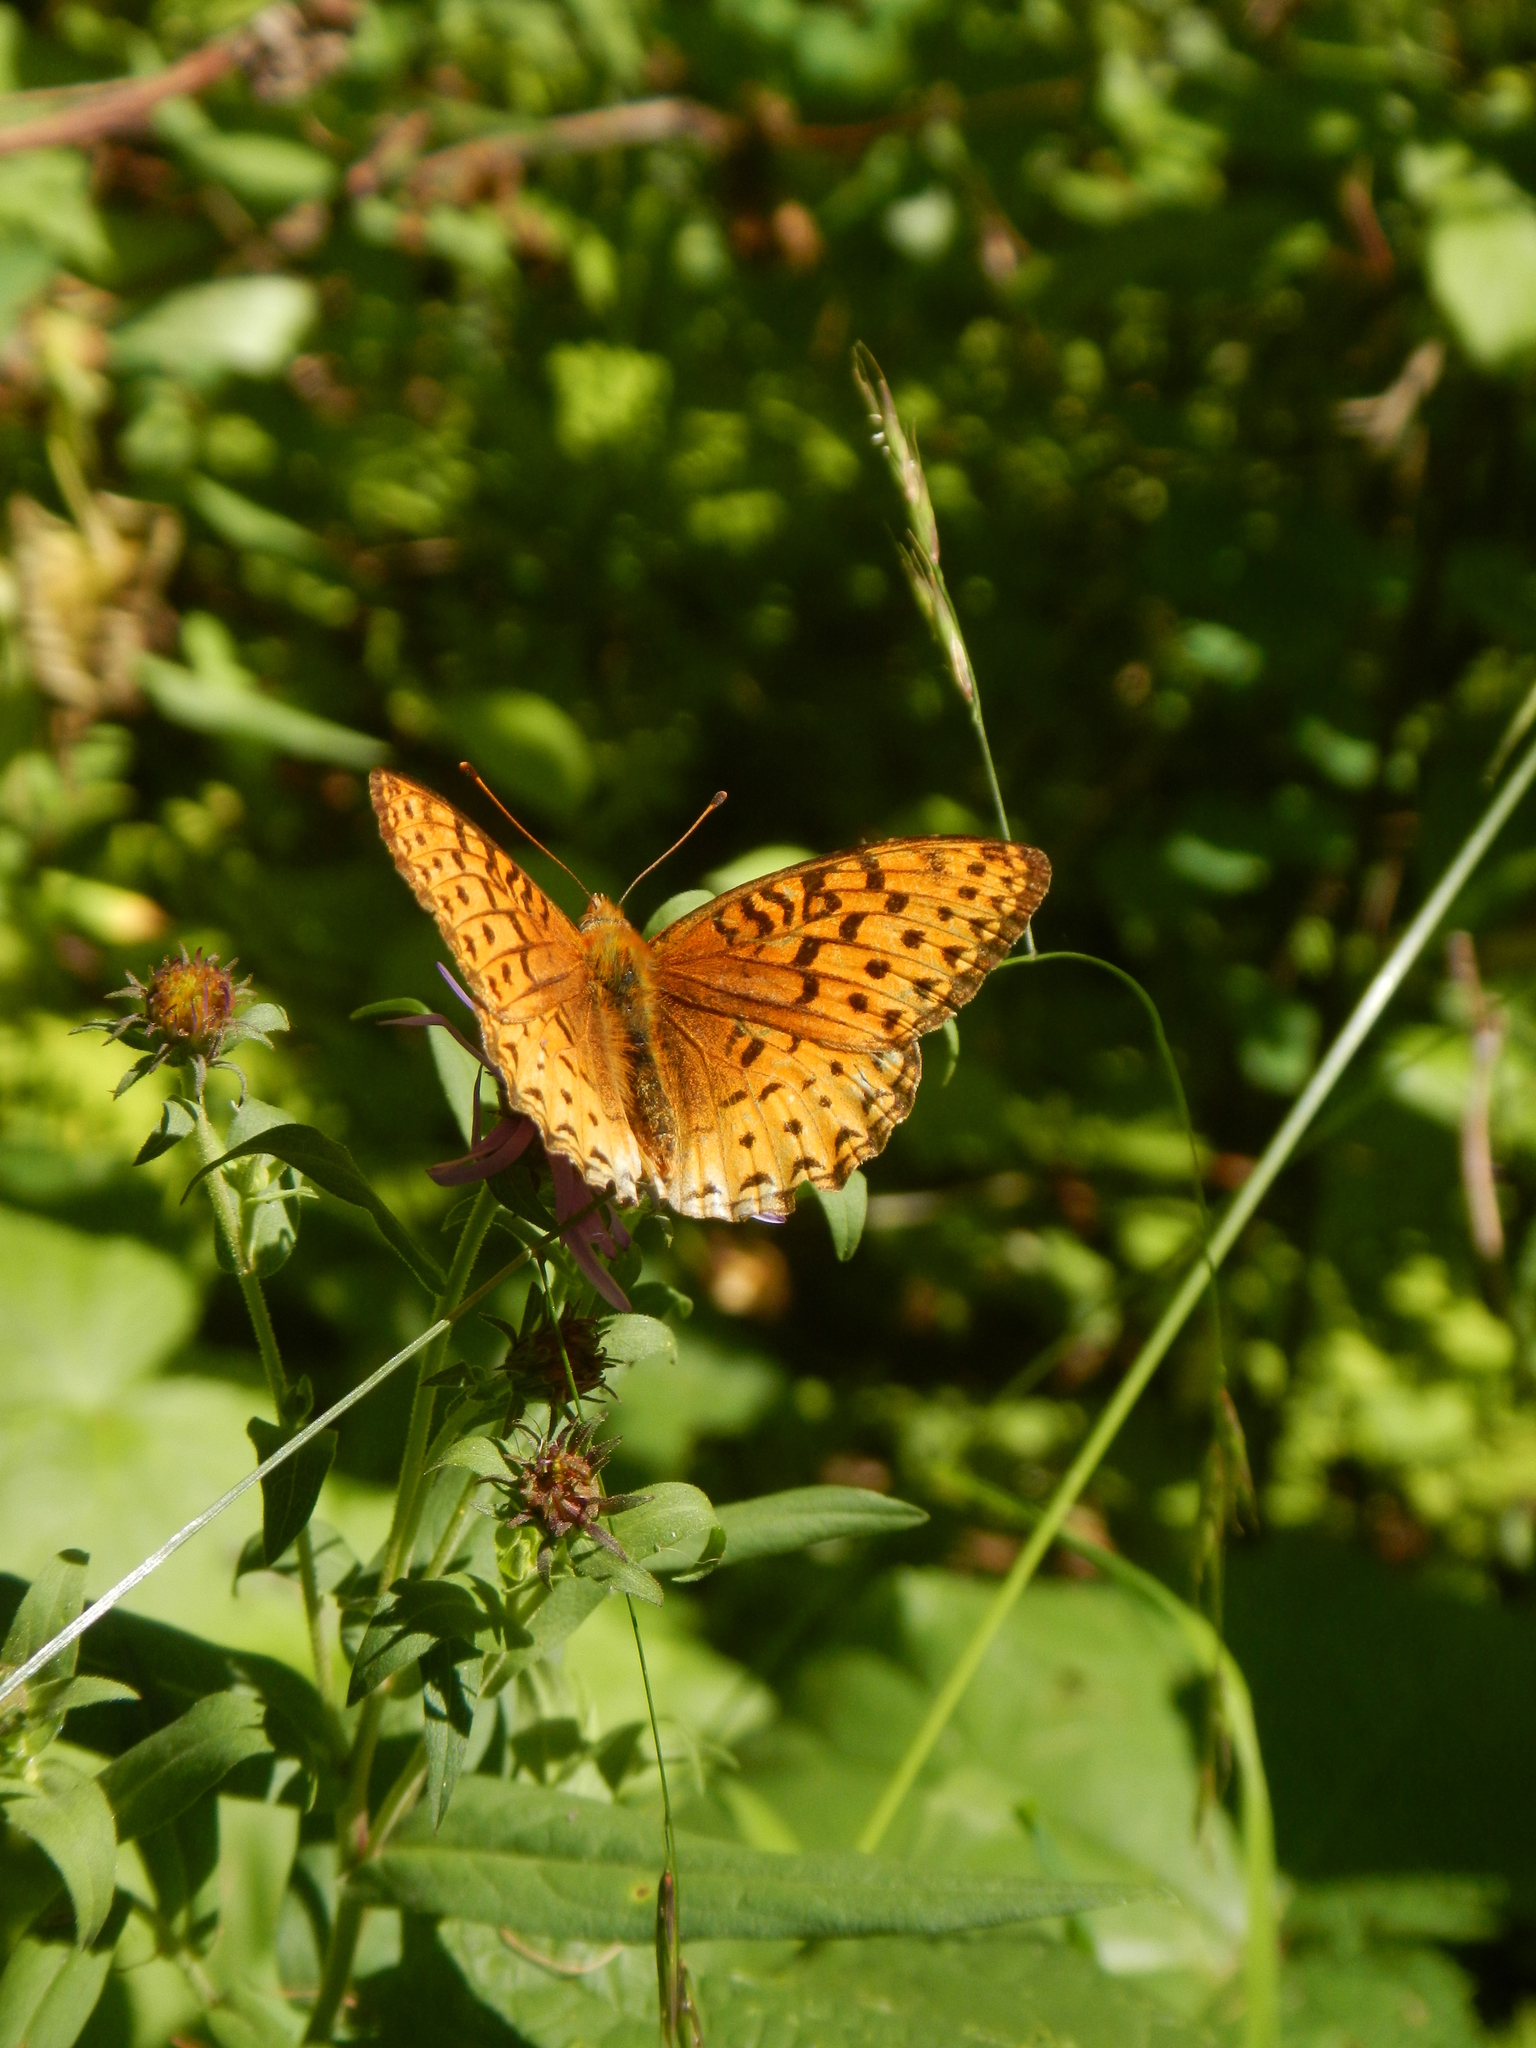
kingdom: Animalia
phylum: Arthropoda
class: Insecta
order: Lepidoptera
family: Nymphalidae
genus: Speyeria
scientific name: Speyeria aphrodite
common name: Aphrodite friitllary
